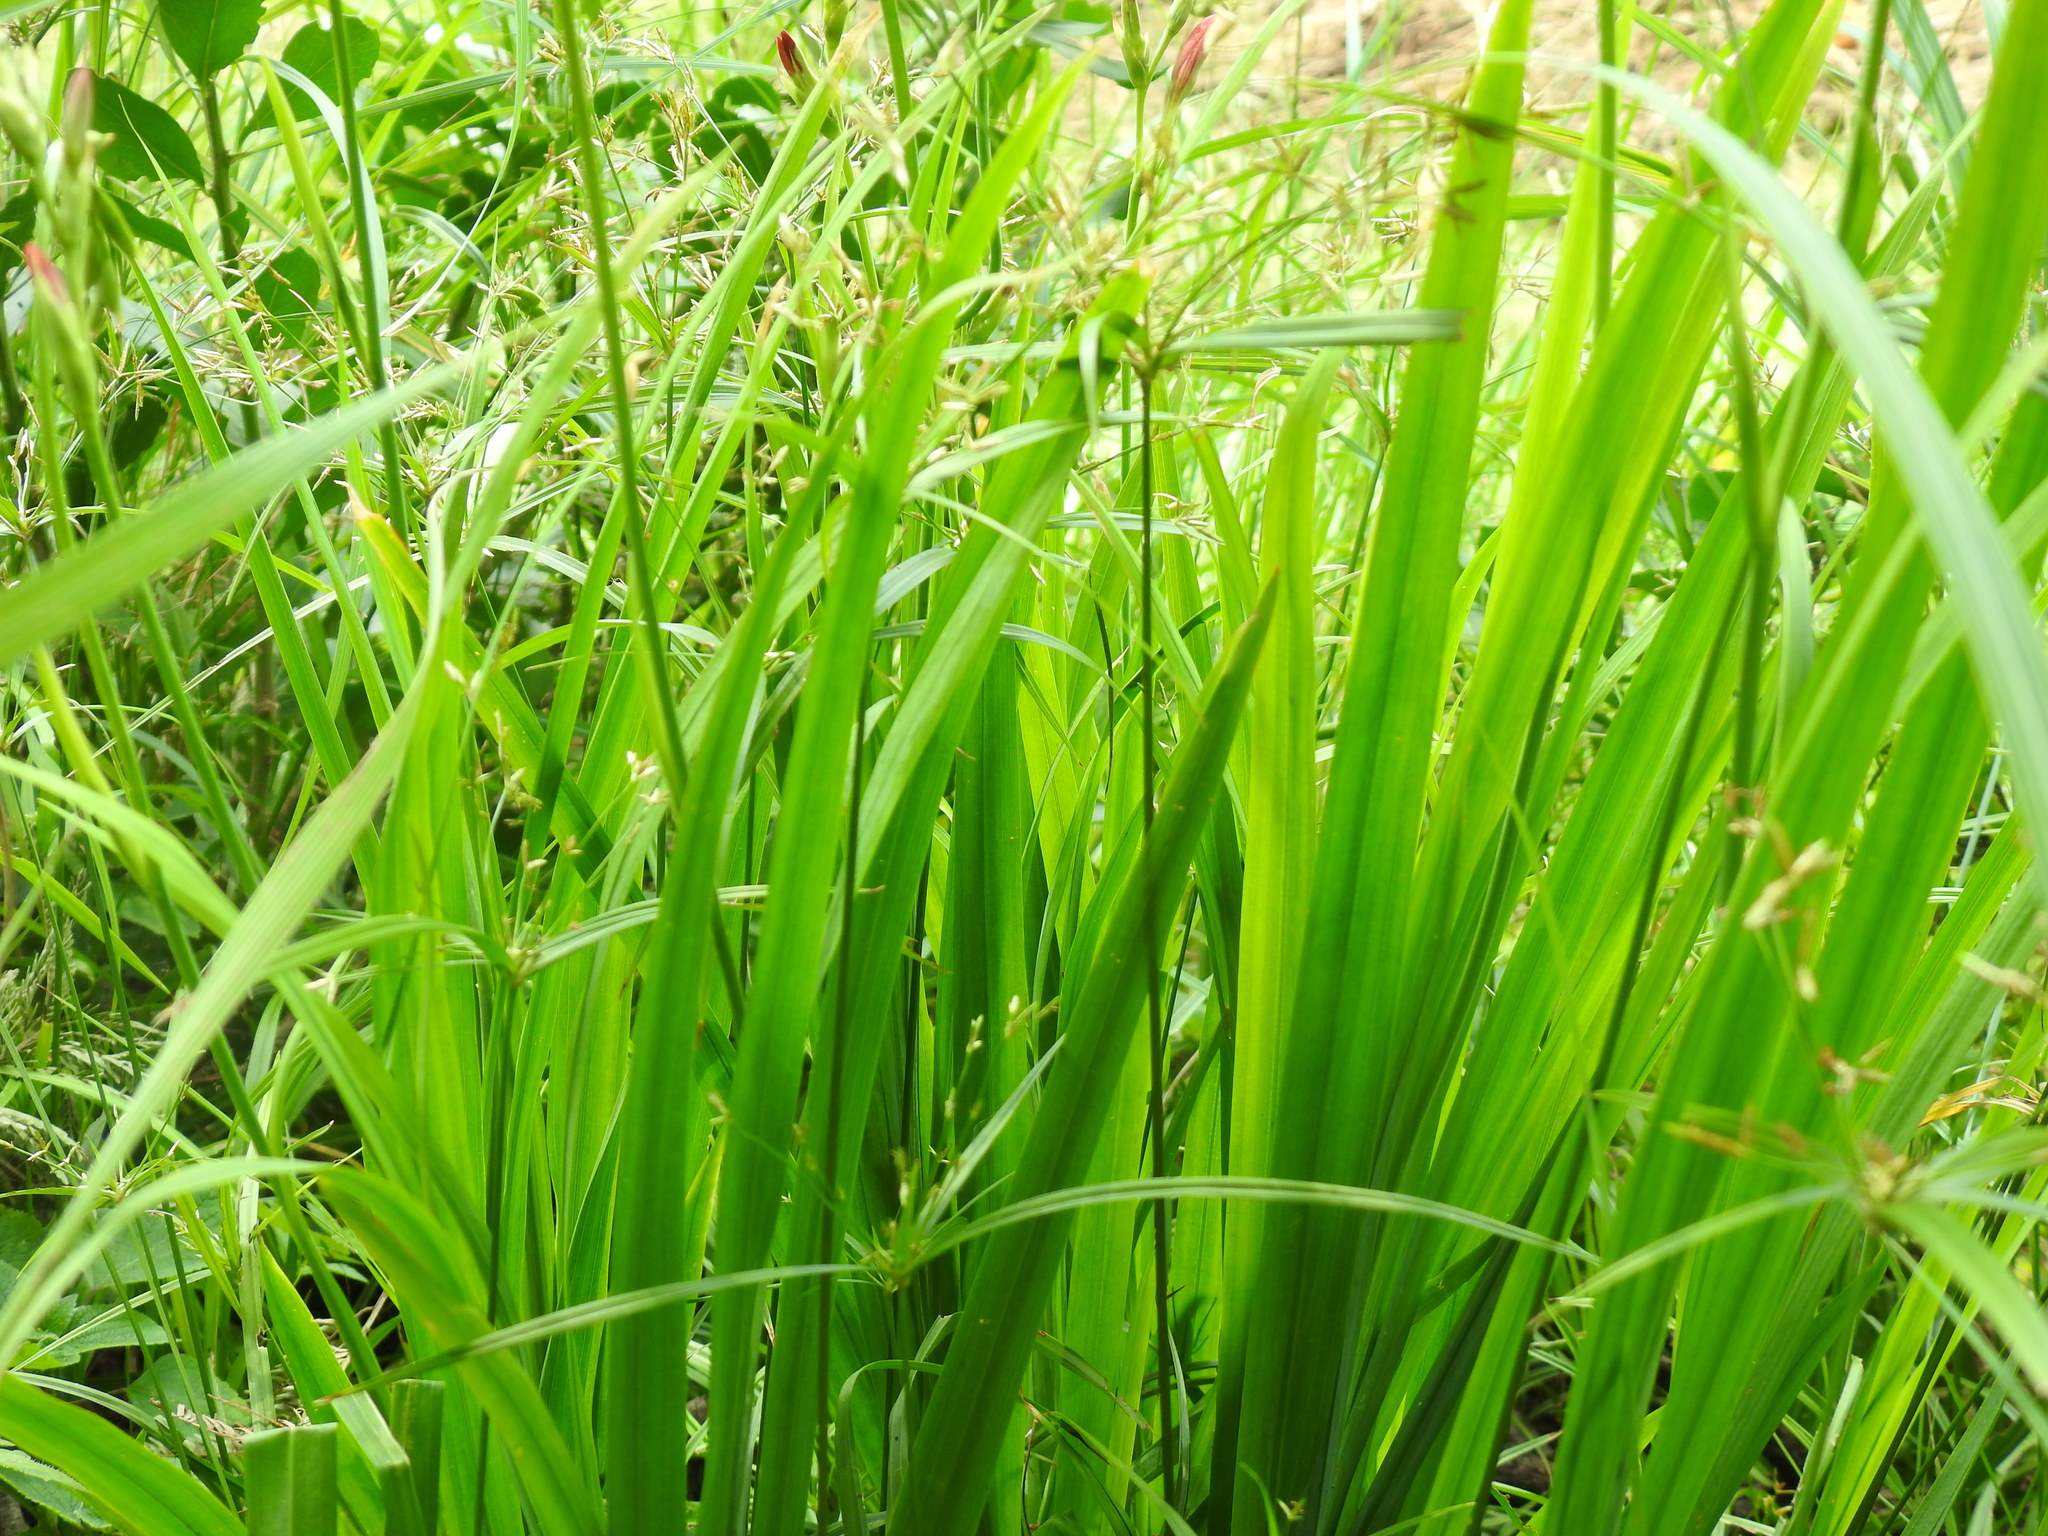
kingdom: Plantae
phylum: Tracheophyta
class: Liliopsida
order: Asparagales
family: Iridaceae
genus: Freesia
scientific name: Freesia grandiflora
